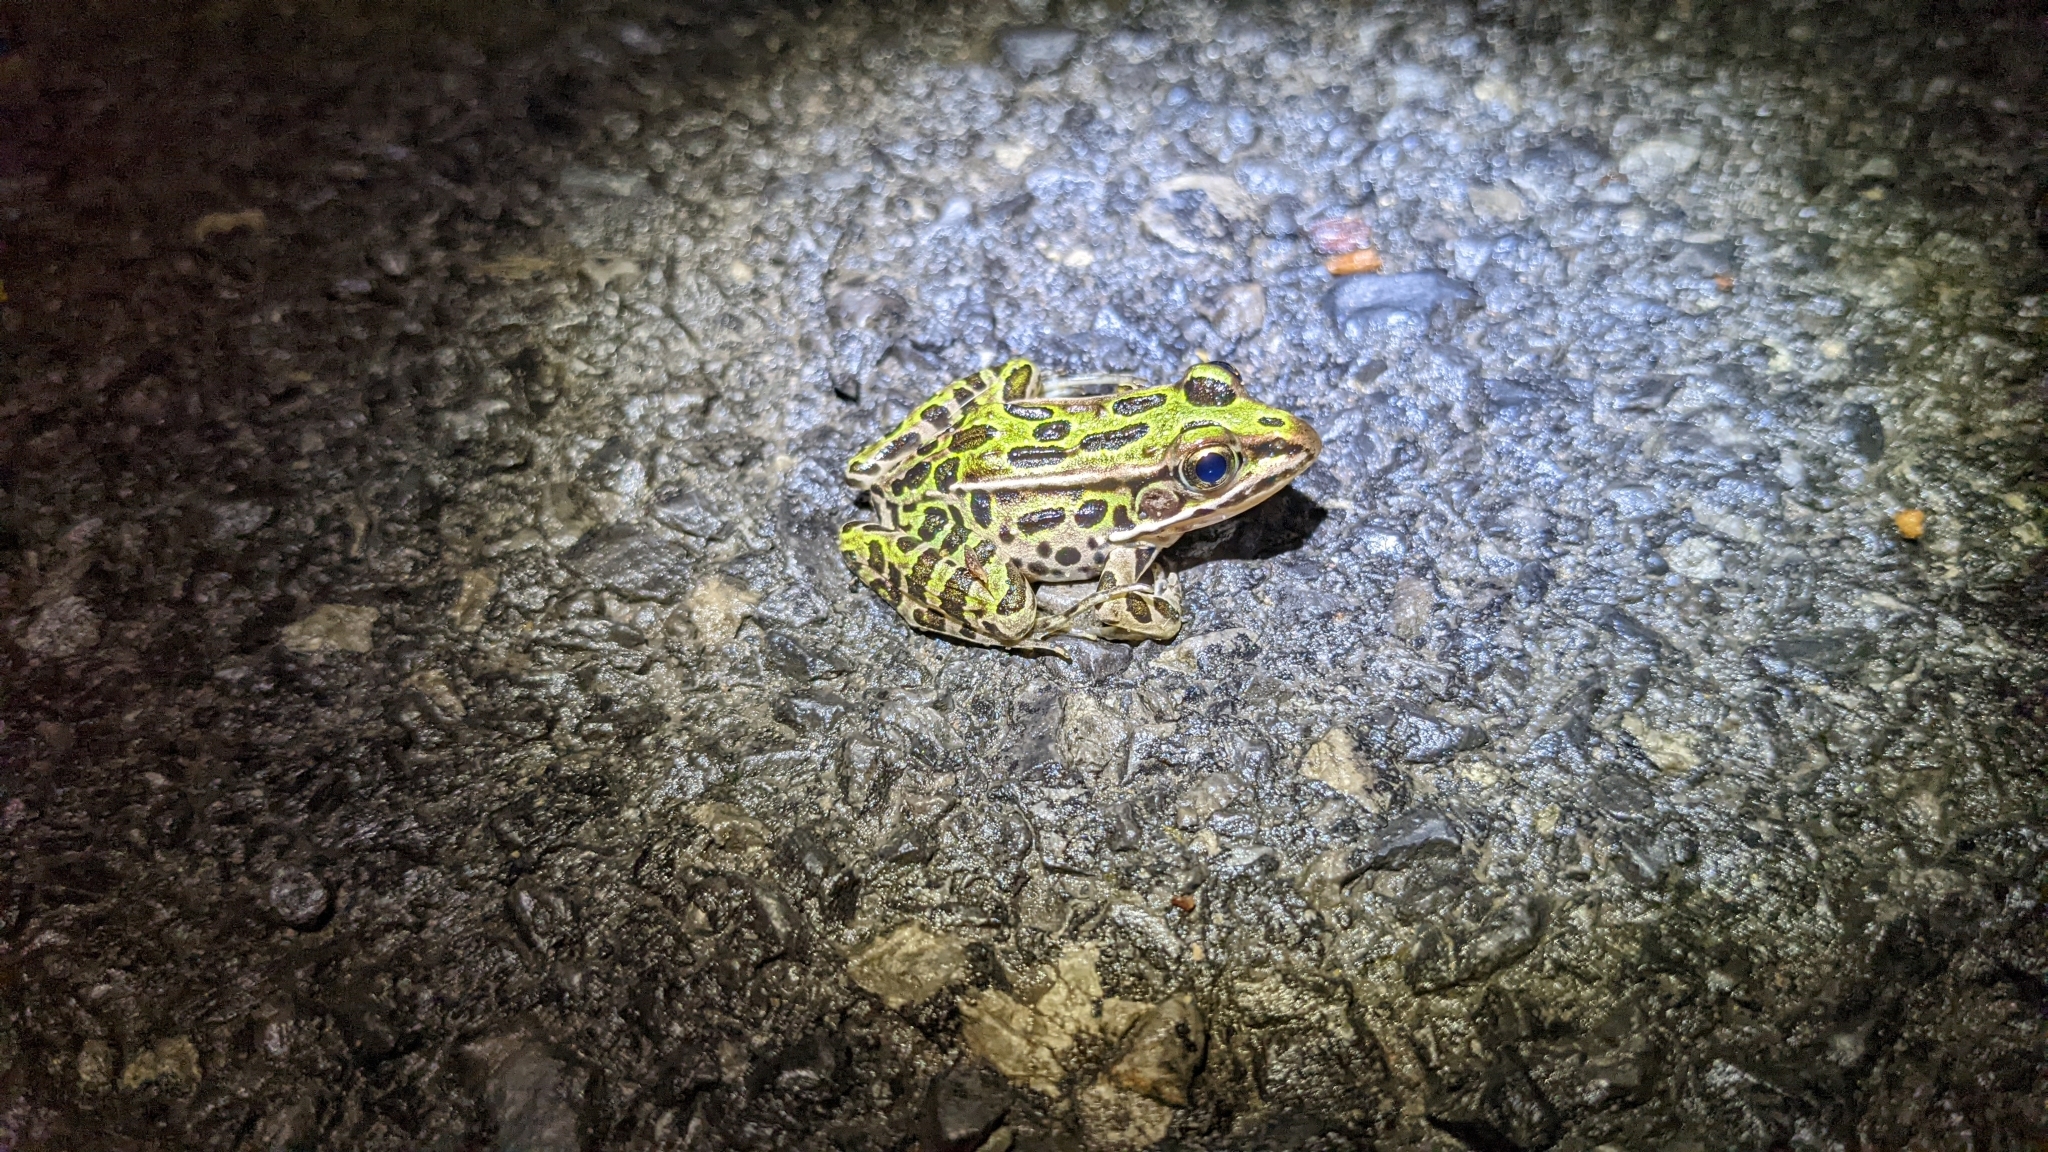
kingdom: Animalia
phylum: Chordata
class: Amphibia
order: Anura
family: Ranidae
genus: Lithobates
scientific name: Lithobates pipiens
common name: Northern leopard frog
